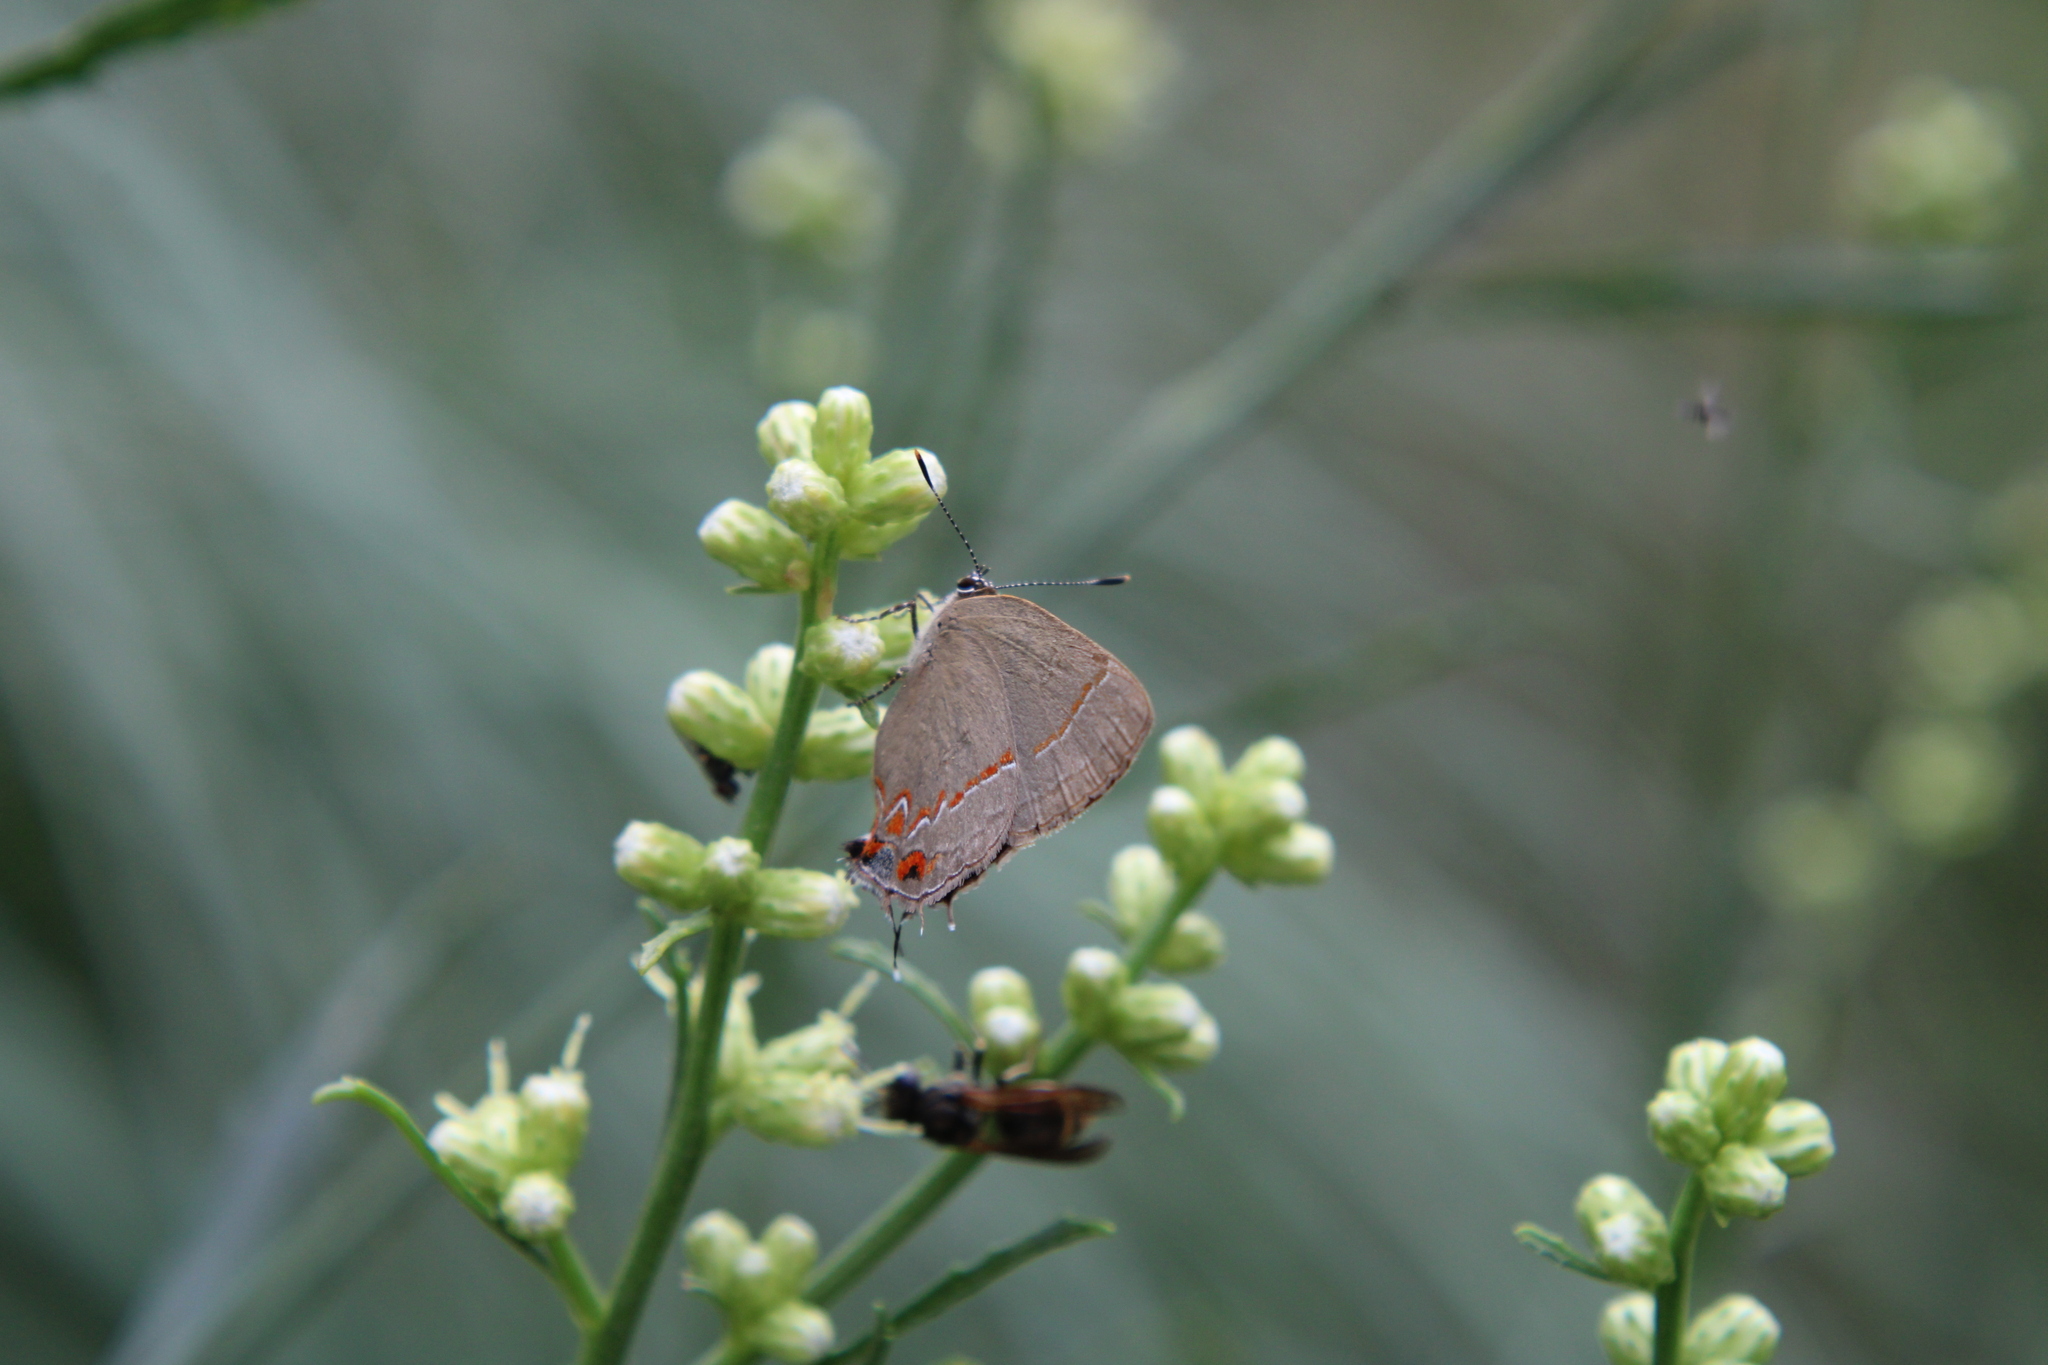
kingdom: Animalia
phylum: Arthropoda
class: Insecta
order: Lepidoptera
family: Lycaenidae
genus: Calycopis
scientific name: Calycopis caulonia
